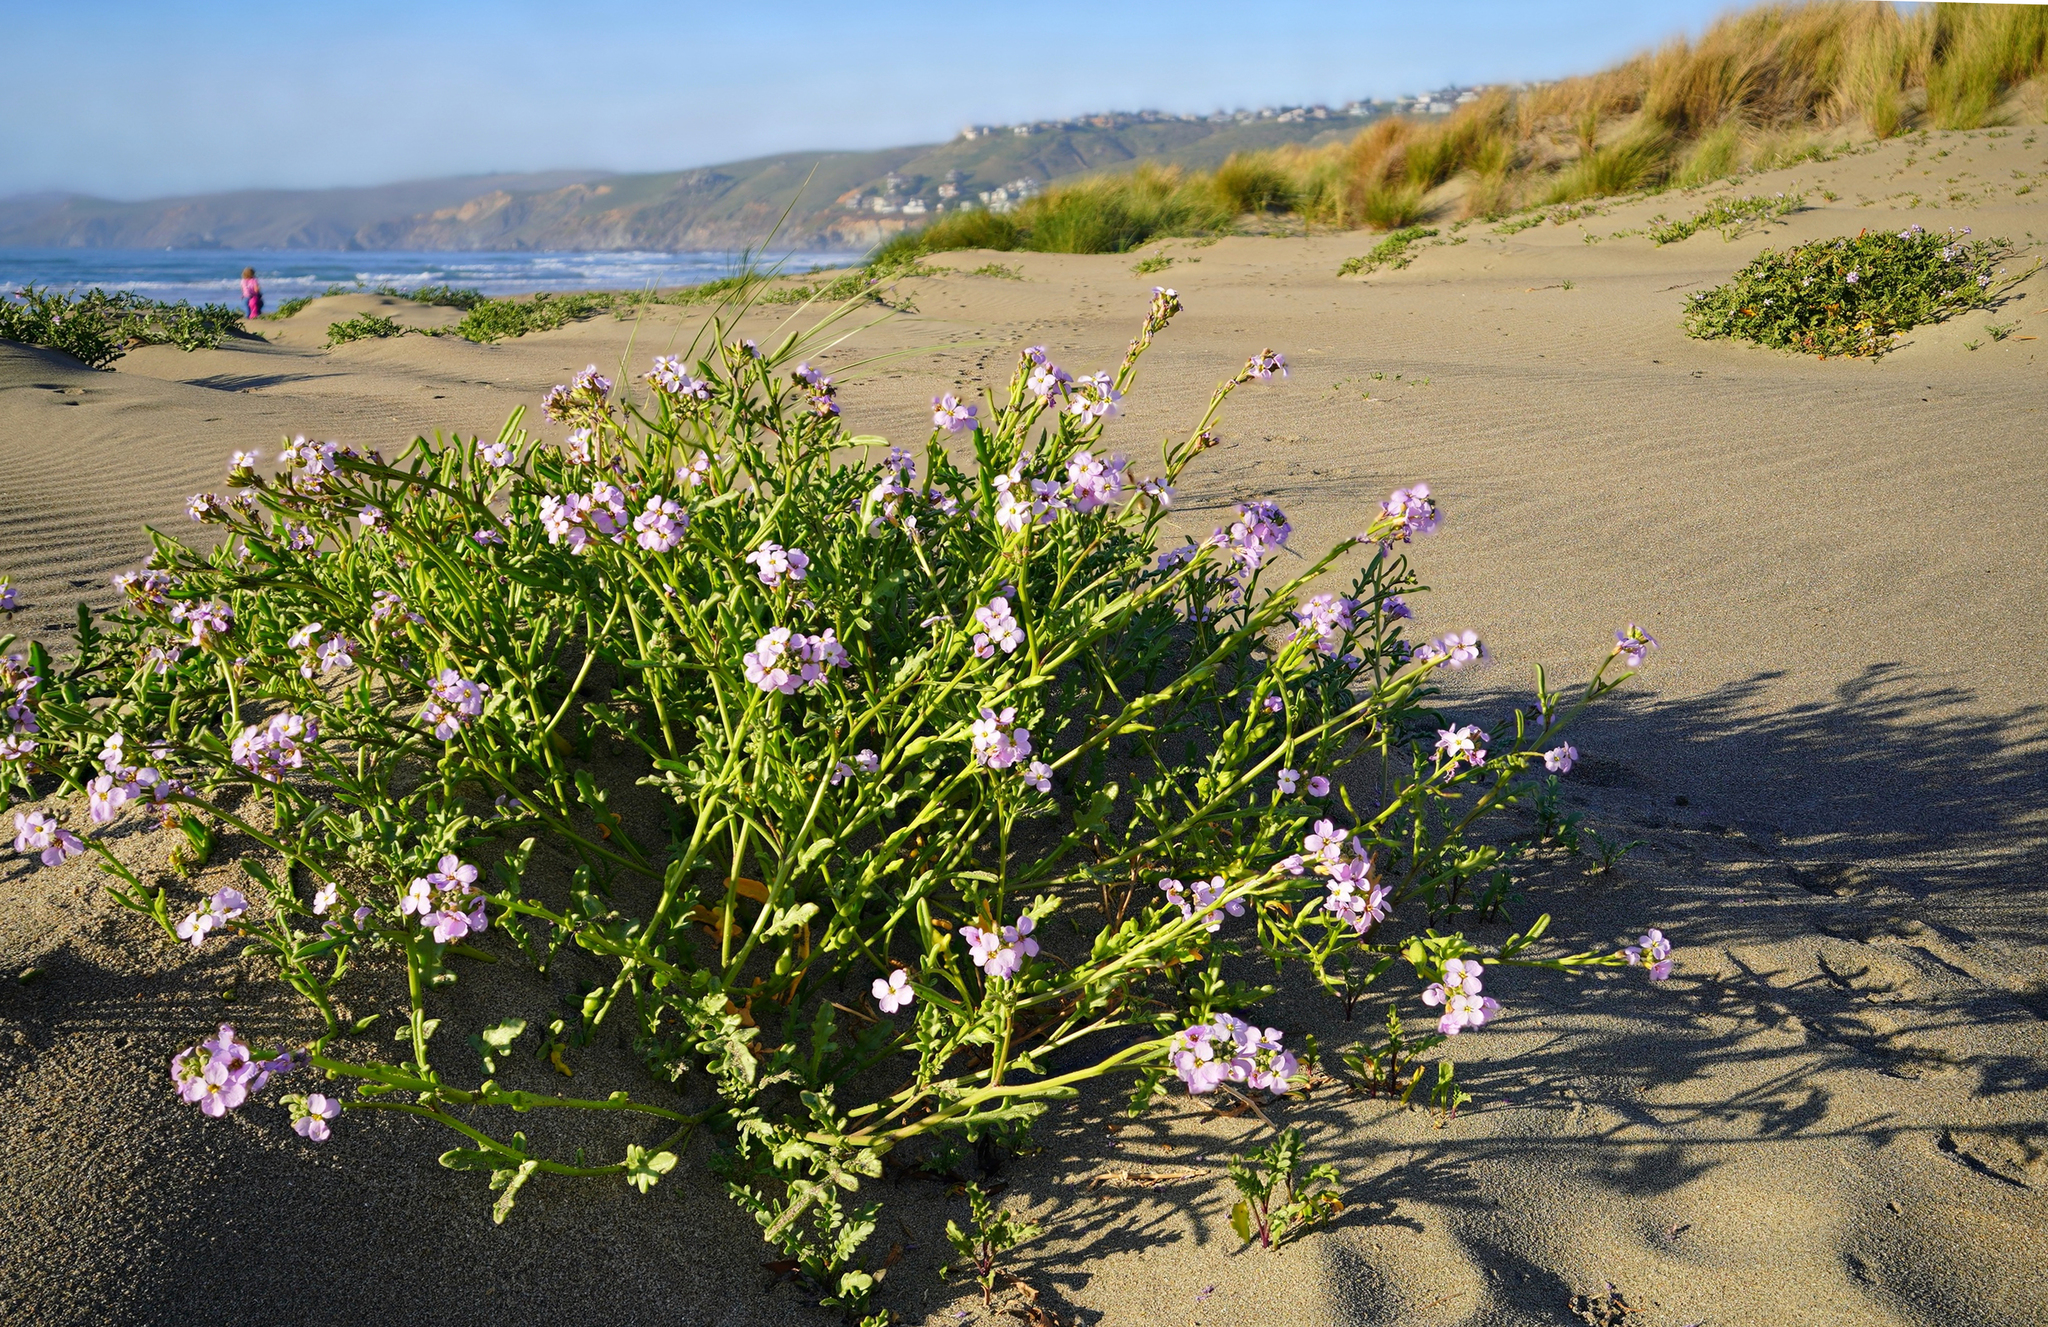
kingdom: Plantae
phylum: Tracheophyta
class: Magnoliopsida
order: Brassicales
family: Brassicaceae
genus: Cakile
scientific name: Cakile maritima
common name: Sea rocket
